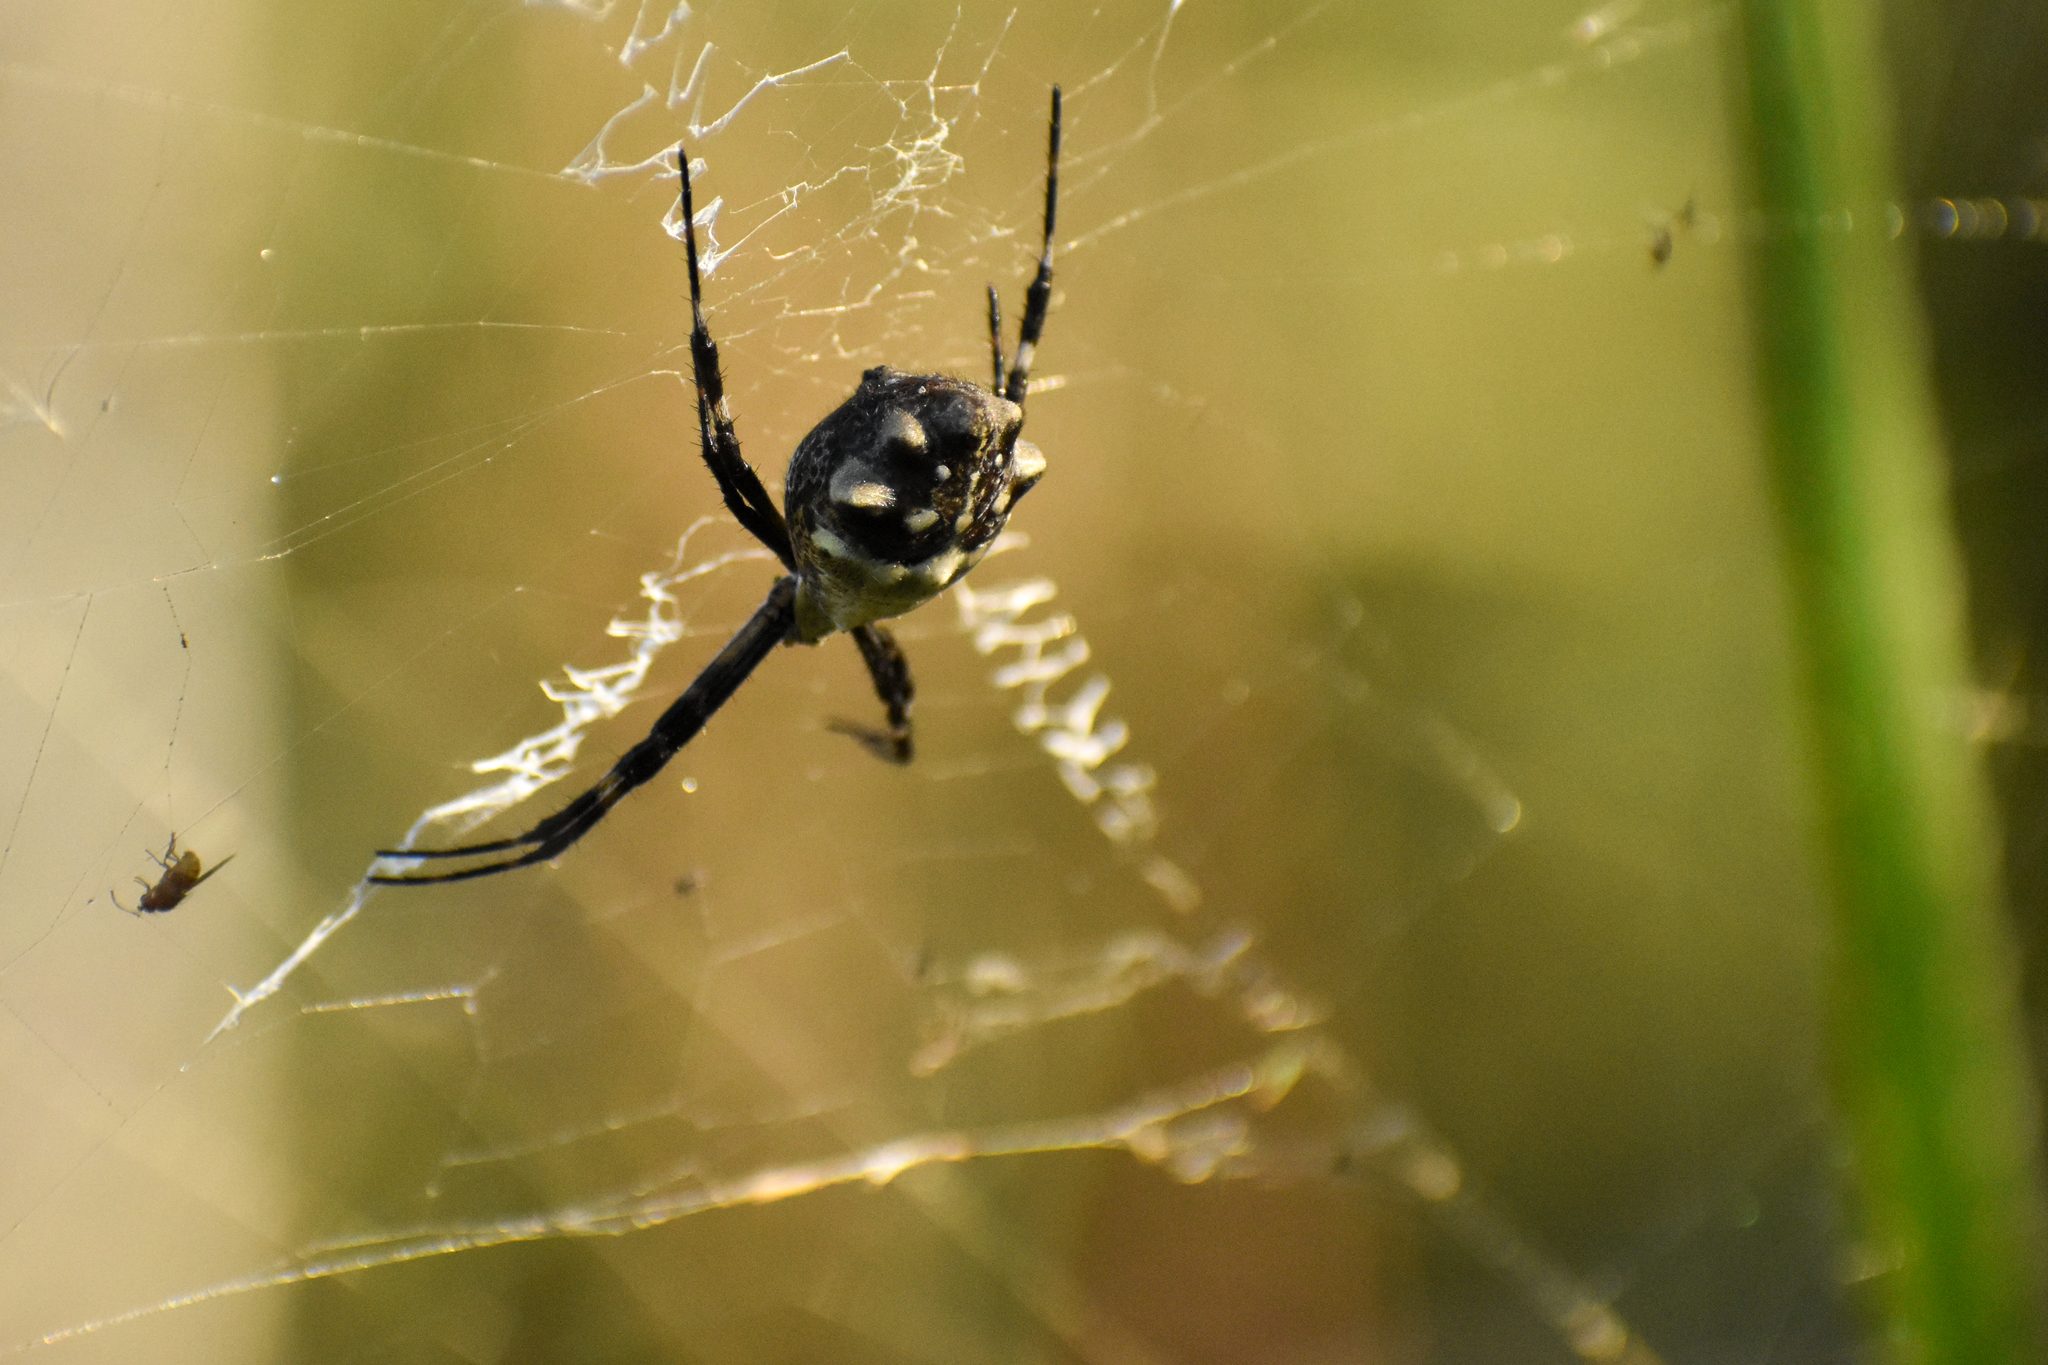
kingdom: Animalia
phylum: Arthropoda
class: Arachnida
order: Araneae
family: Araneidae
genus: Argiope
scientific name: Argiope argentata
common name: Orb weavers
